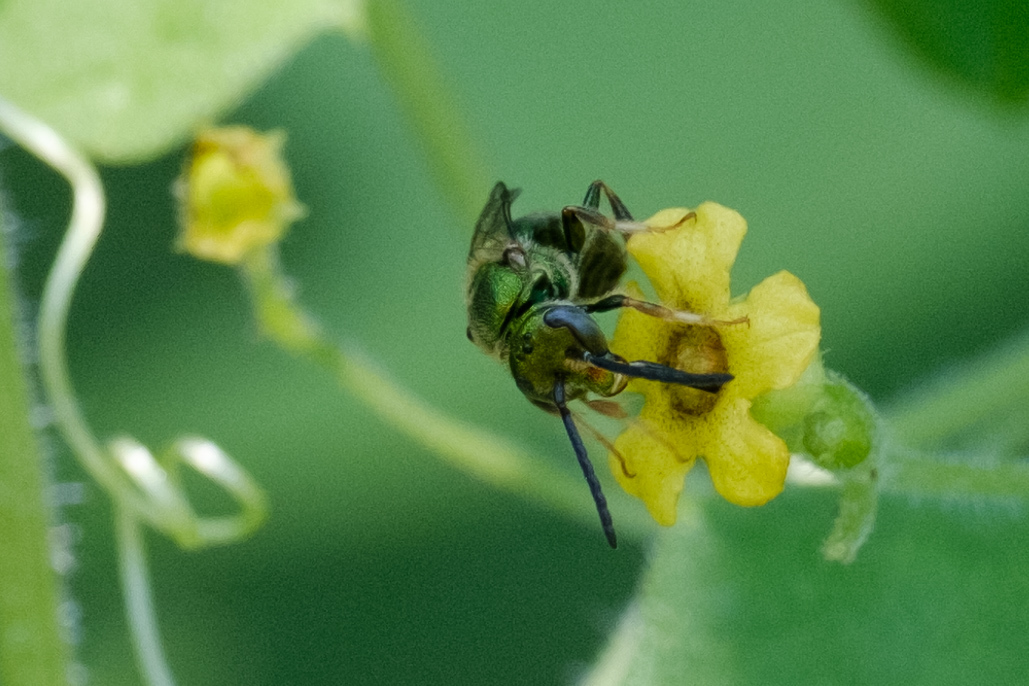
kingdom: Animalia
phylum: Arthropoda
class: Insecta
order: Hymenoptera
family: Halictidae
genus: Augochlora
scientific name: Augochlora pura
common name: Pure green sweat bee
